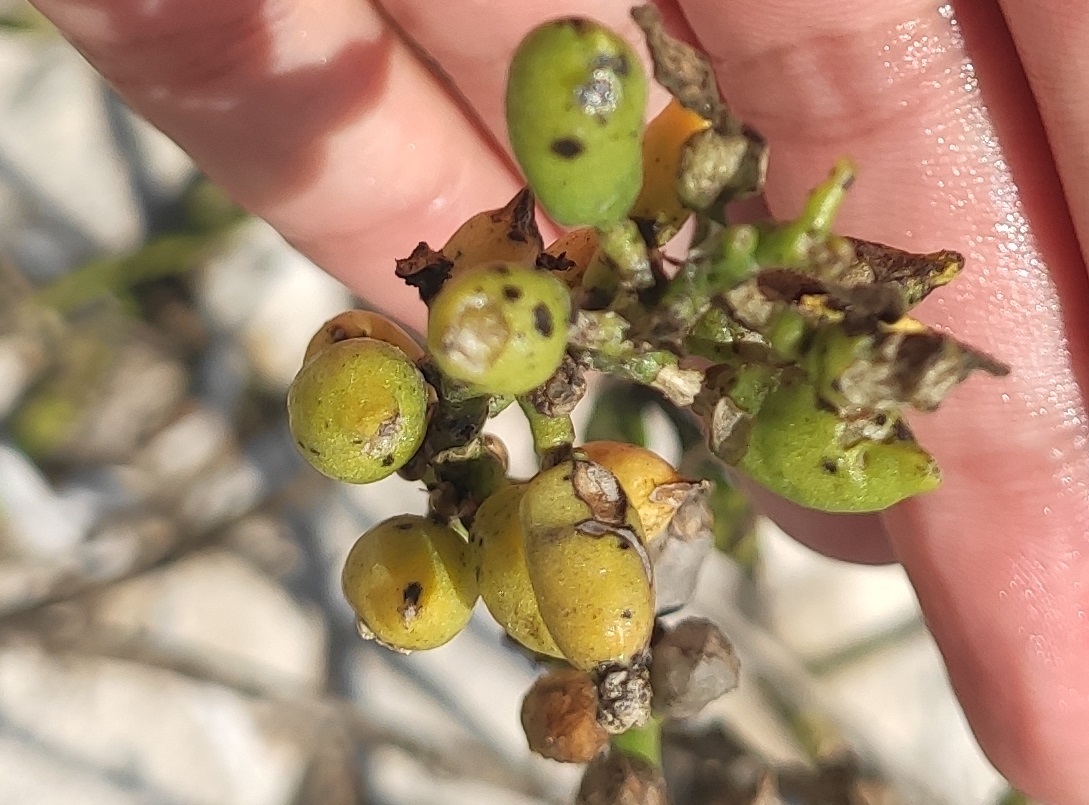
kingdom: Plantae
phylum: Tracheophyta
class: Magnoliopsida
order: Brassicales
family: Brassicaceae
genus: Cakile
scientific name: Cakile maritima
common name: Sea rocket
